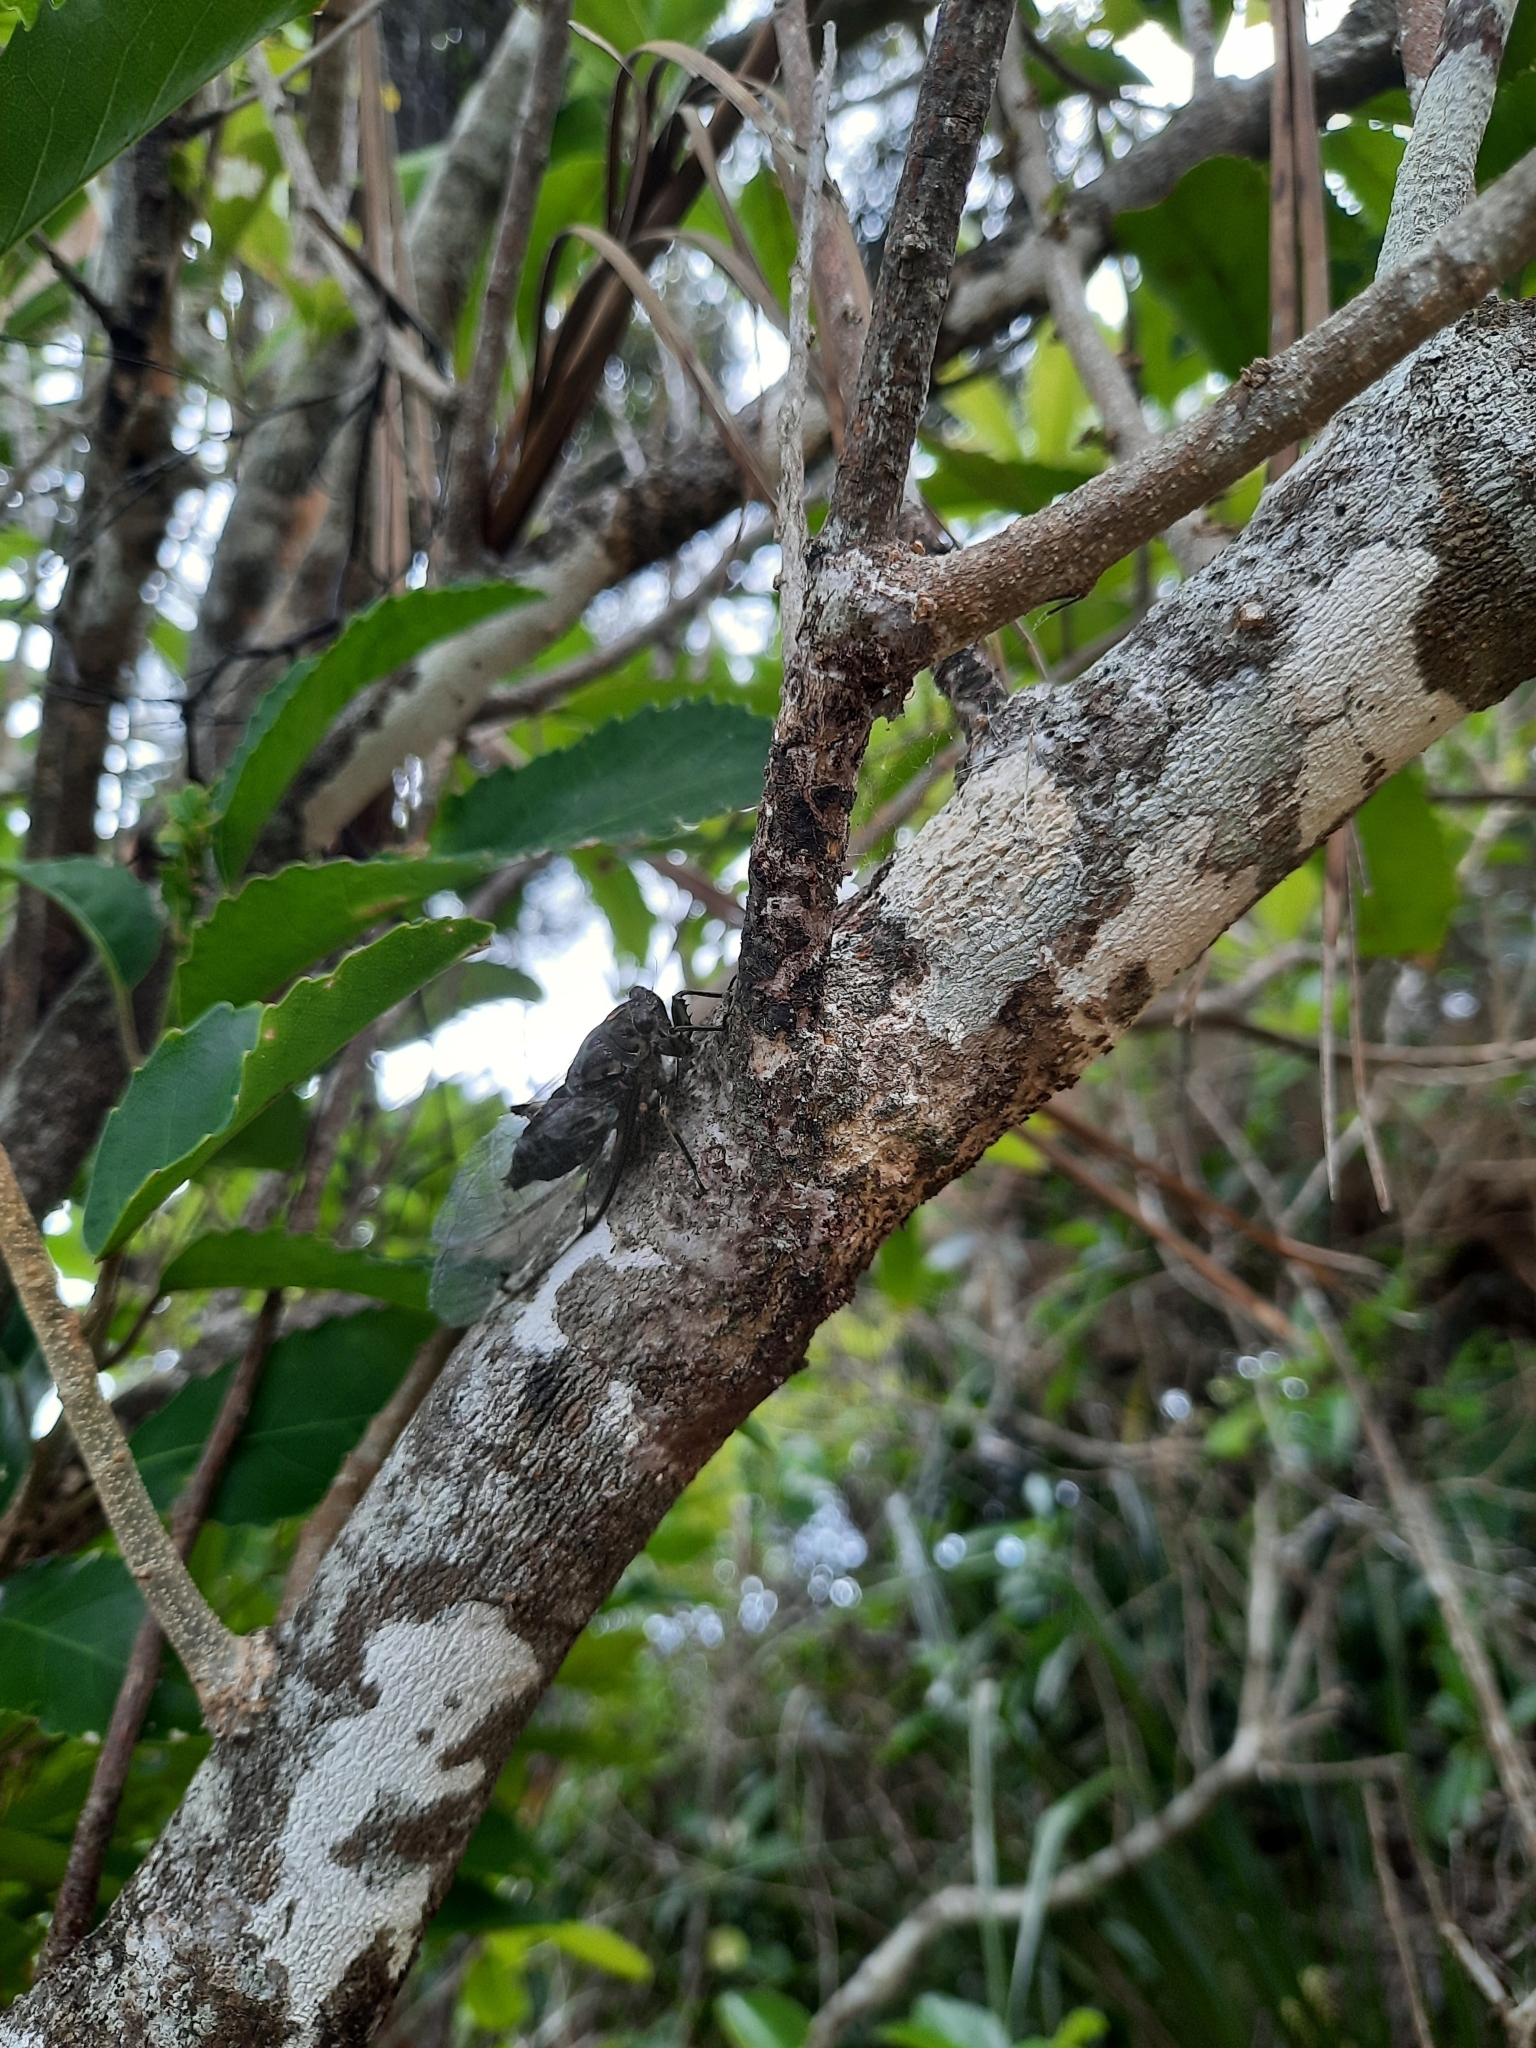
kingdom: Animalia
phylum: Arthropoda
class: Insecta
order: Hemiptera
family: Cicadidae
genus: Amphipsalta
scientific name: Amphipsalta zelandica
